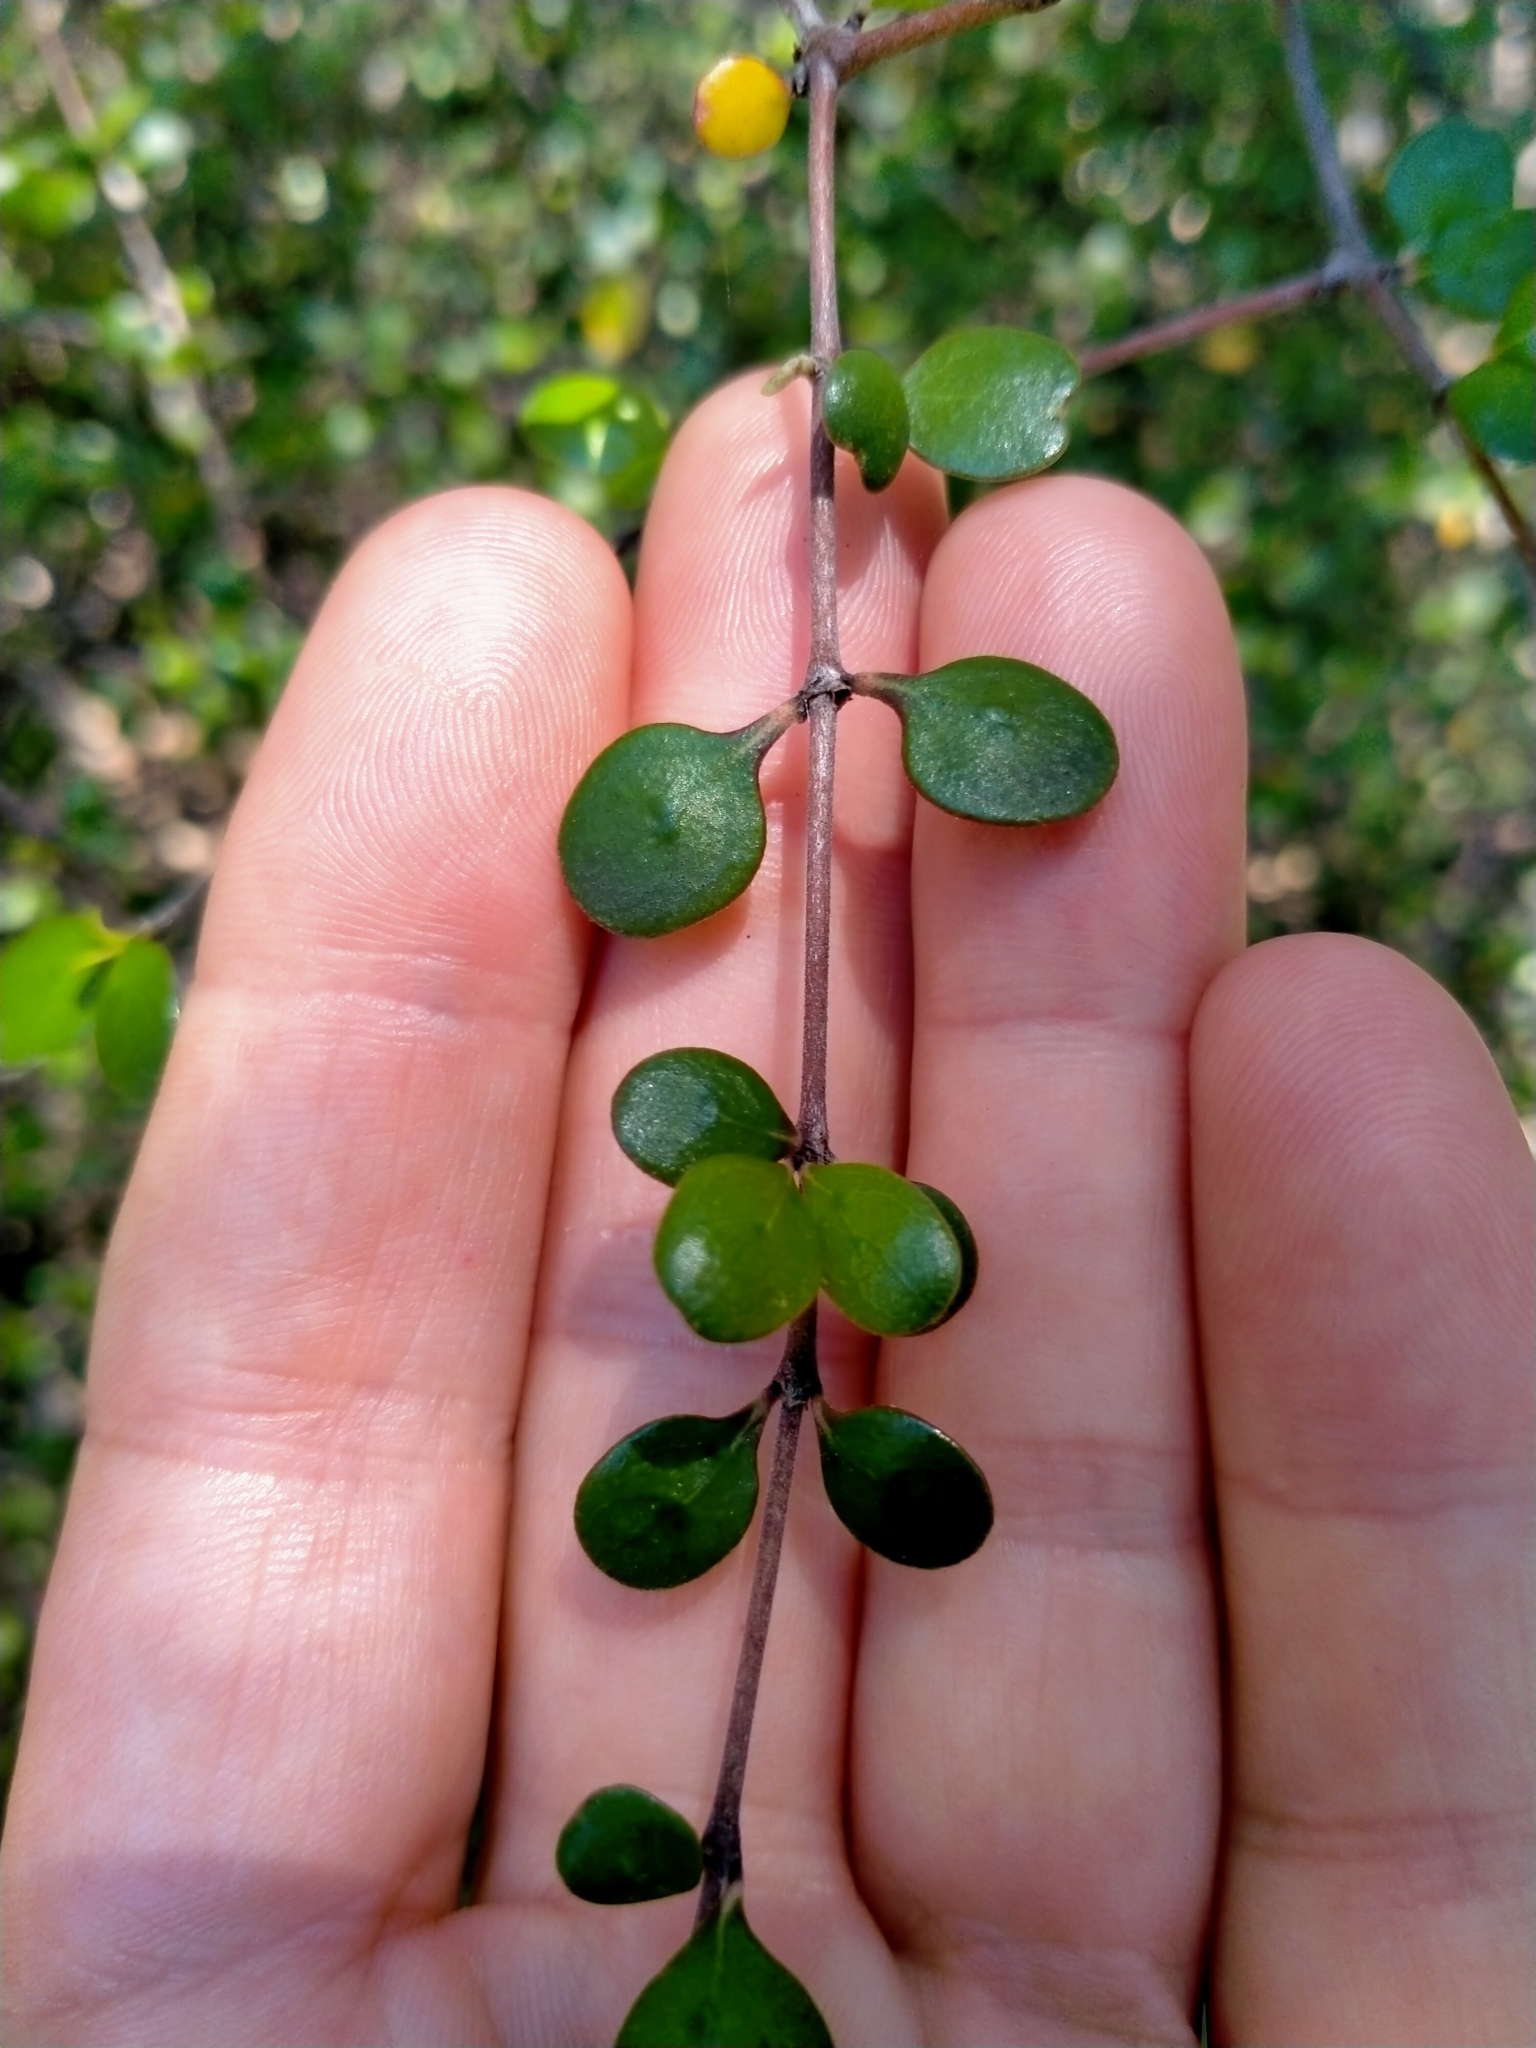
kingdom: Plantae
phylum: Tracheophyta
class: Magnoliopsida
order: Gentianales
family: Rubiaceae
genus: Coprosma
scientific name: Coprosma crassifolia
